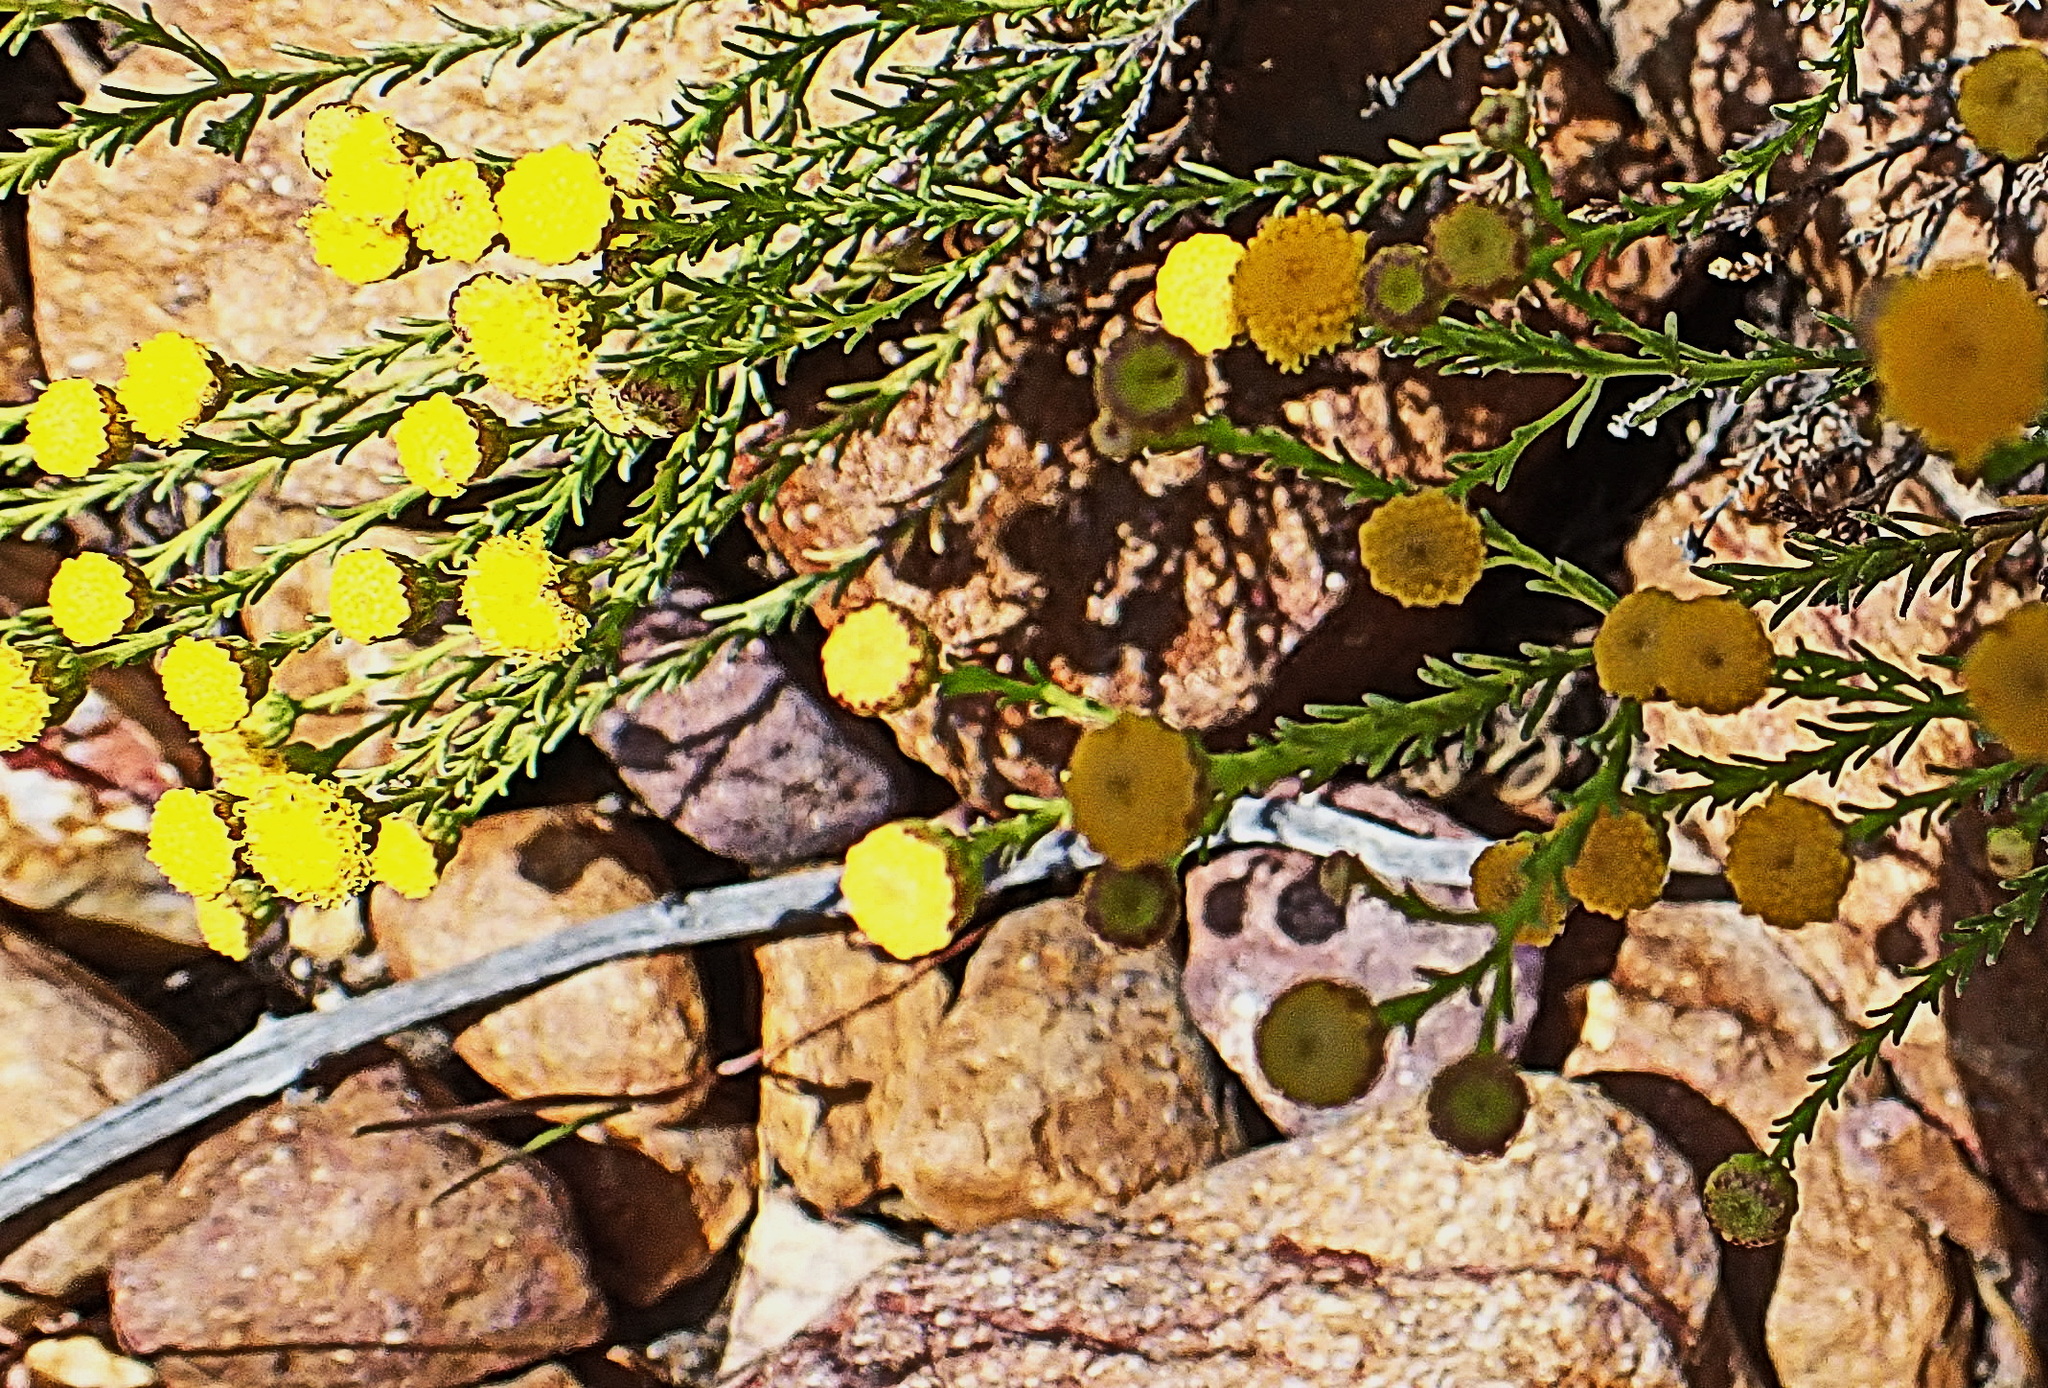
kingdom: Plantae
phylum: Tracheophyta
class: Magnoliopsida
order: Asterales
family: Asteraceae
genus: Chrysocoma
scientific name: Chrysocoma ciliata
